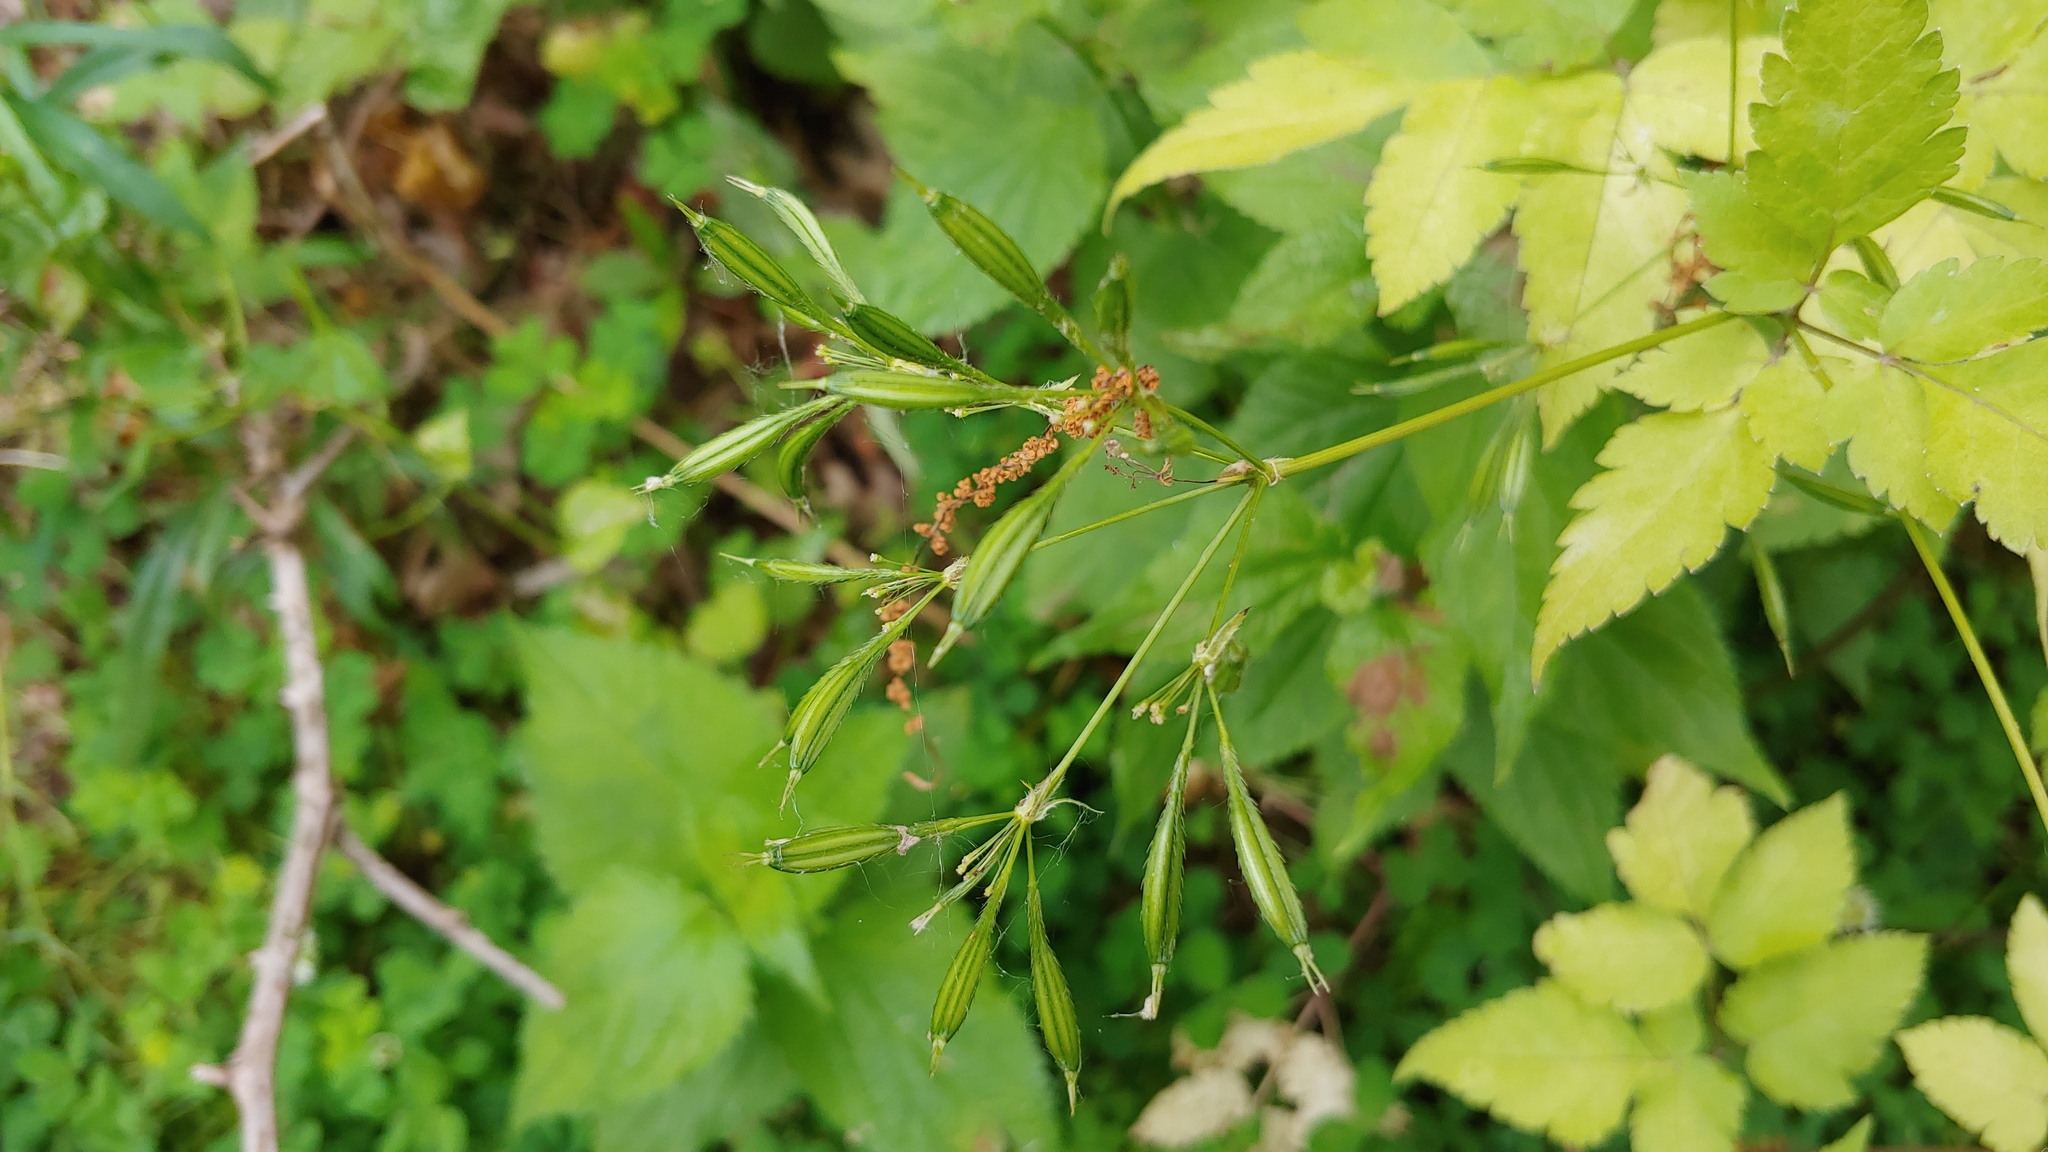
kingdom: Plantae
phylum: Tracheophyta
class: Magnoliopsida
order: Apiales
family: Apiaceae
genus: Osmorhiza
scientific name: Osmorhiza longistylis
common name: Smooth sweet cicely
